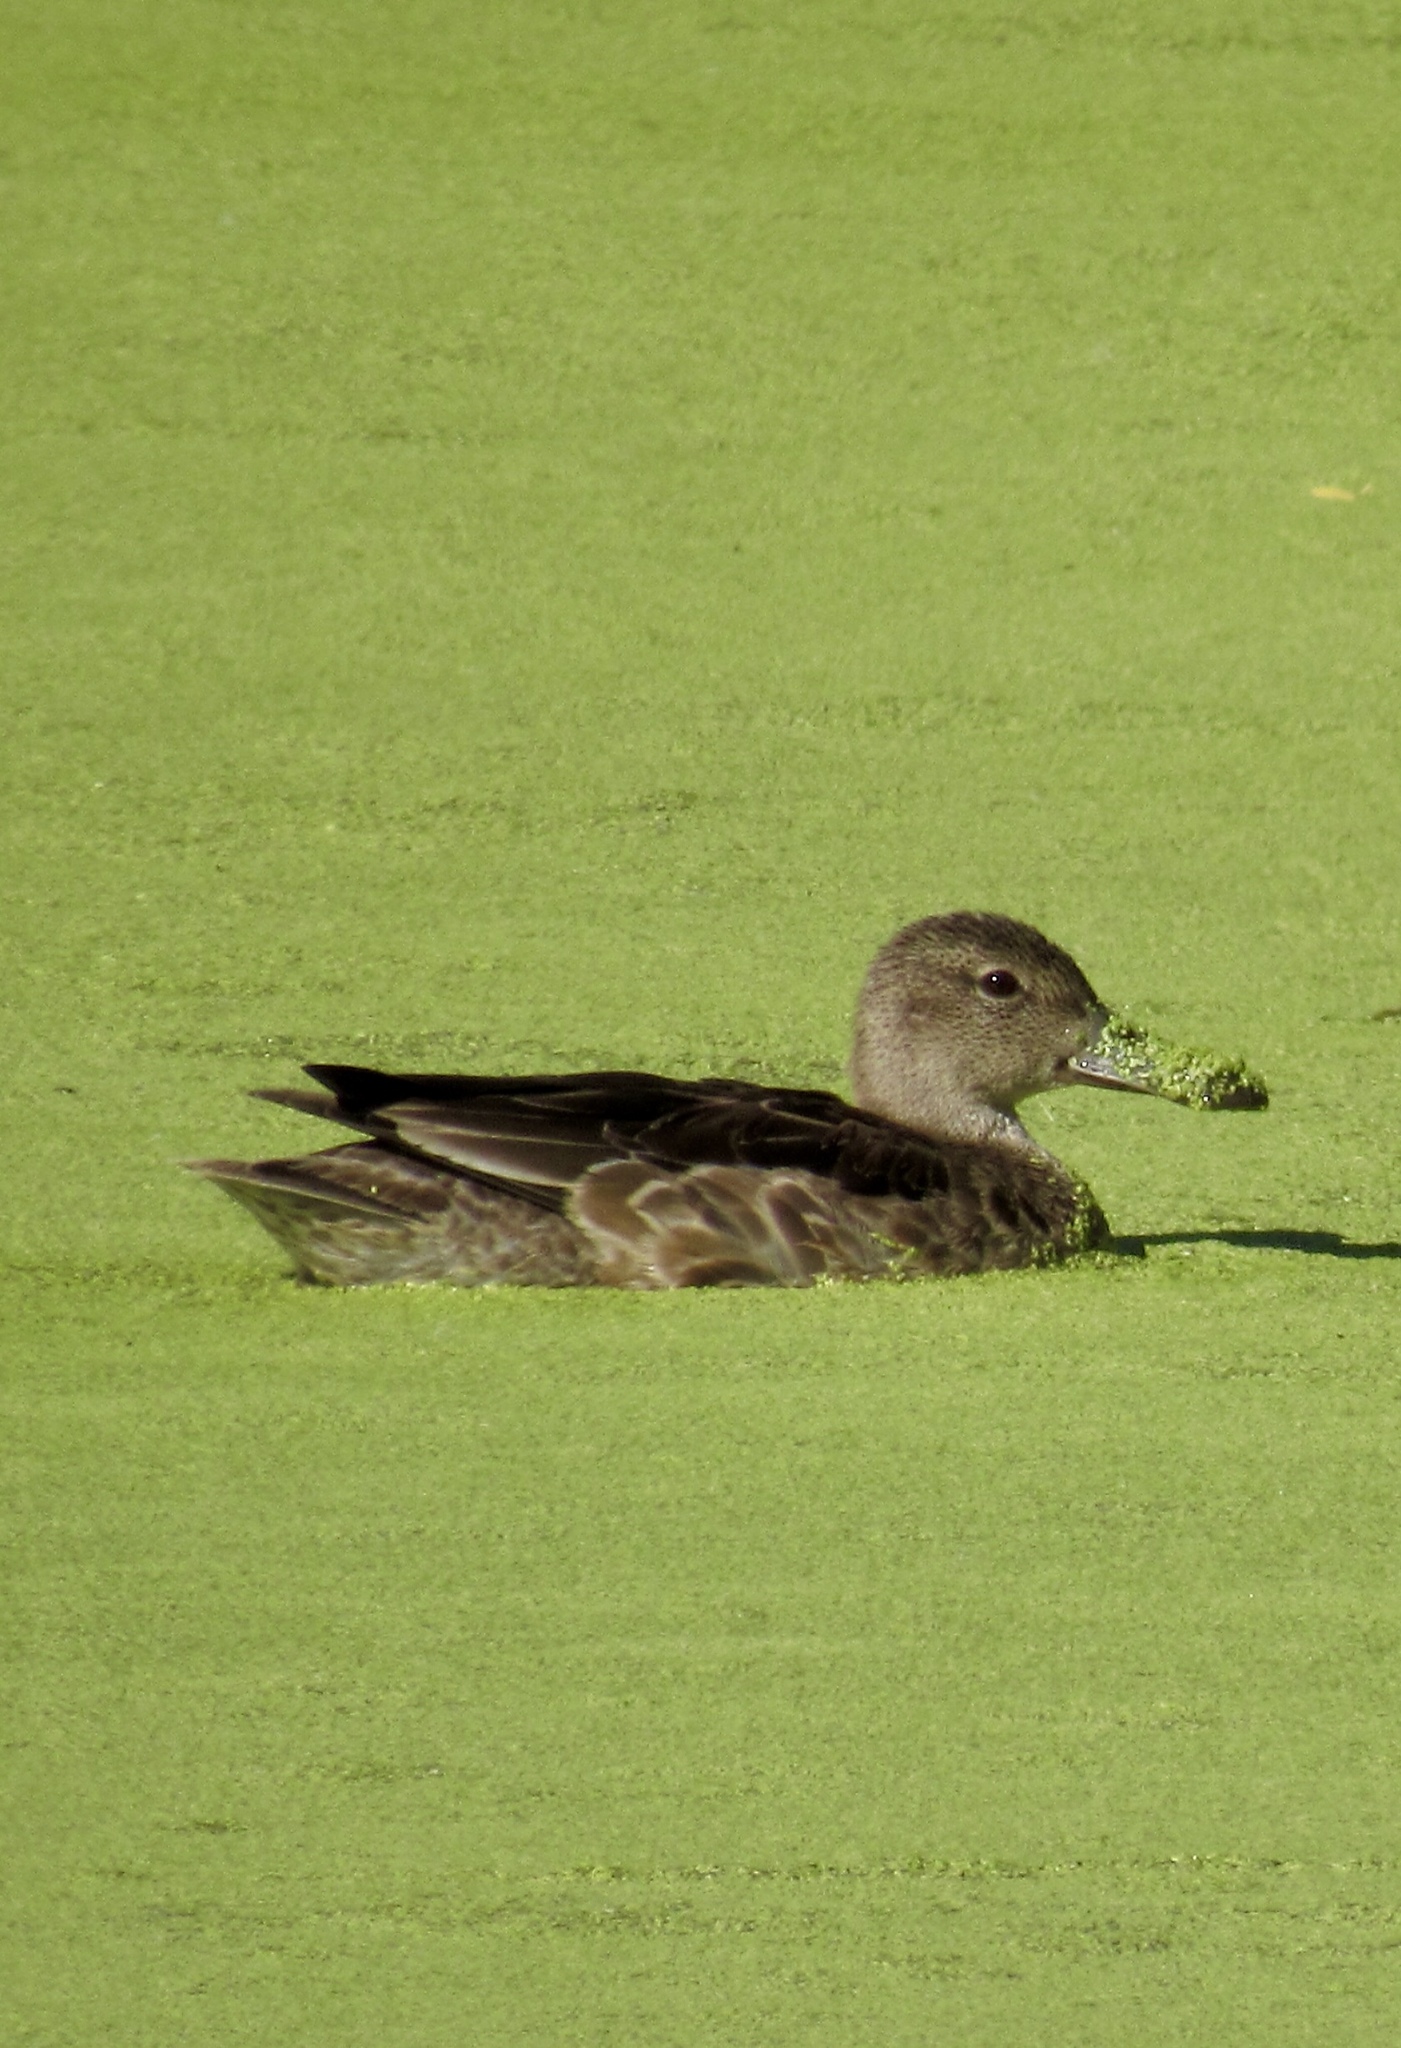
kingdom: Animalia
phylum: Chordata
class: Aves
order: Anseriformes
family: Anatidae
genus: Spatula
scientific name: Spatula discors
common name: Blue-winged teal
